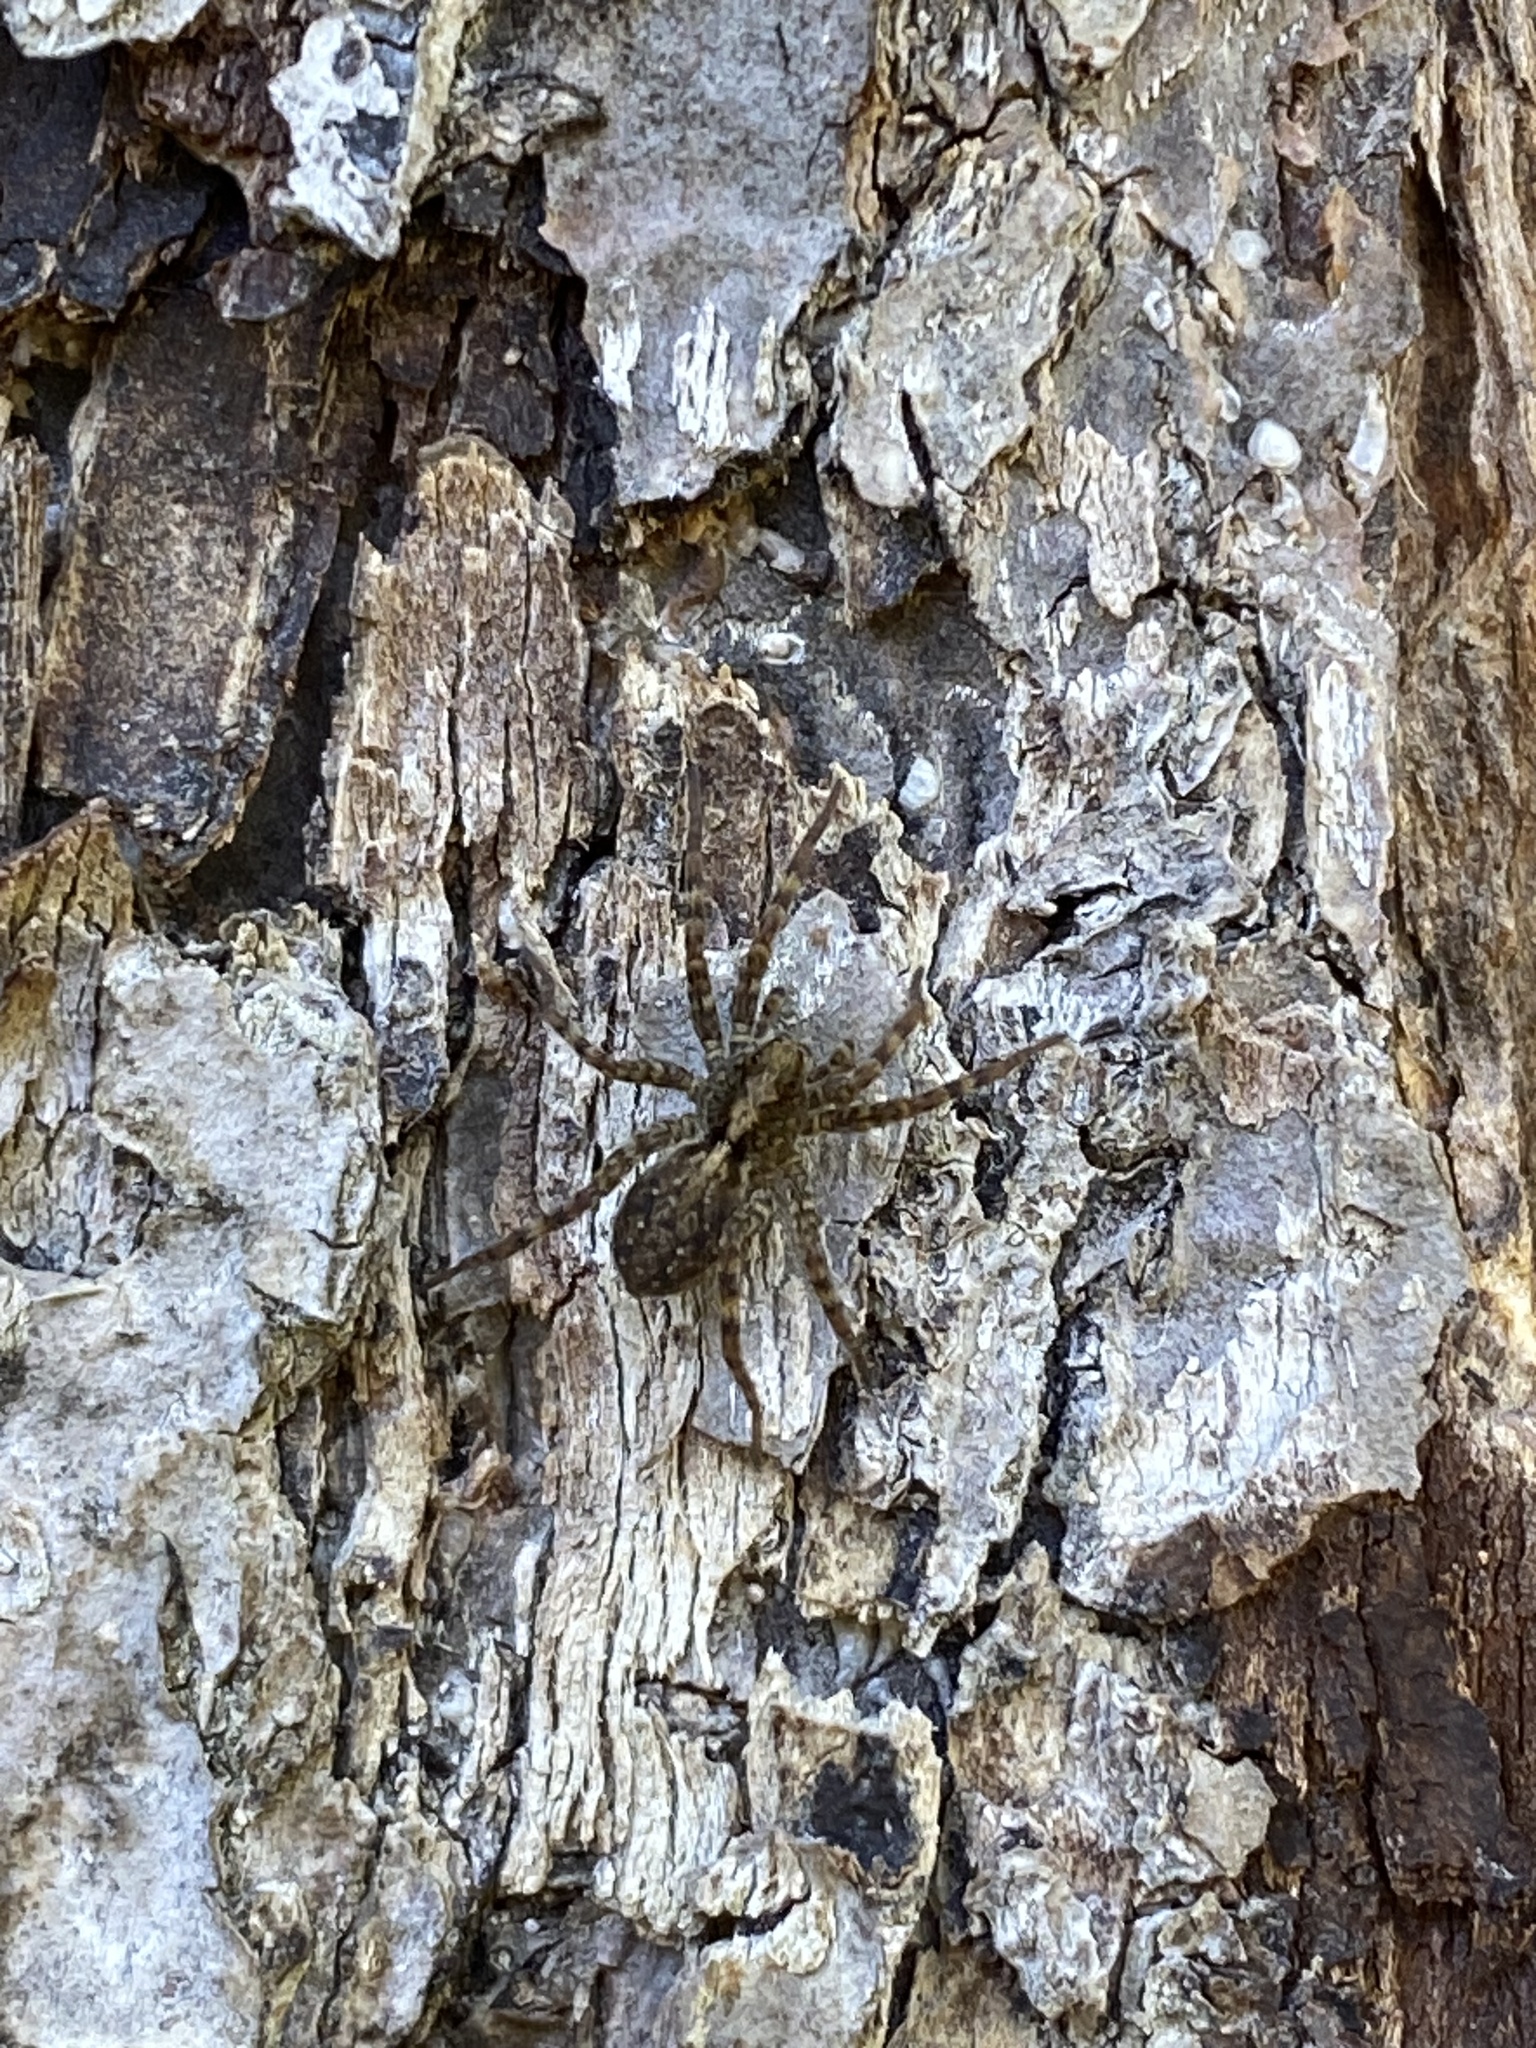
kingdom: Animalia
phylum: Arthropoda
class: Arachnida
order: Araneae
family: Lycosidae
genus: Pardosa
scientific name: Pardosa
